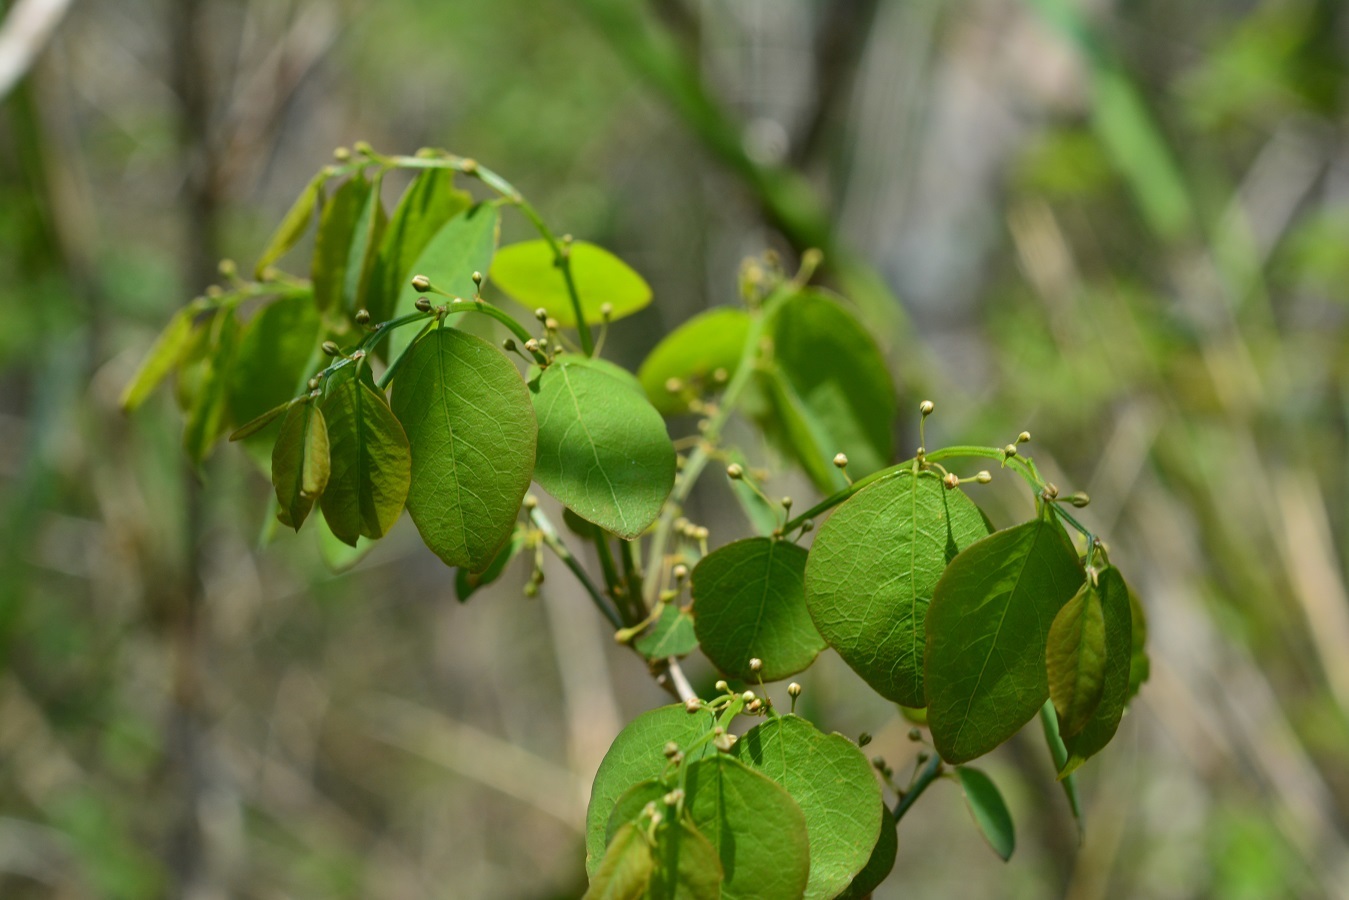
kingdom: Plantae
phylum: Tracheophyta
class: Magnoliopsida
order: Malpighiales
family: Phyllanthaceae
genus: Phyllanthus
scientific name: Phyllanthus mocinoanus
